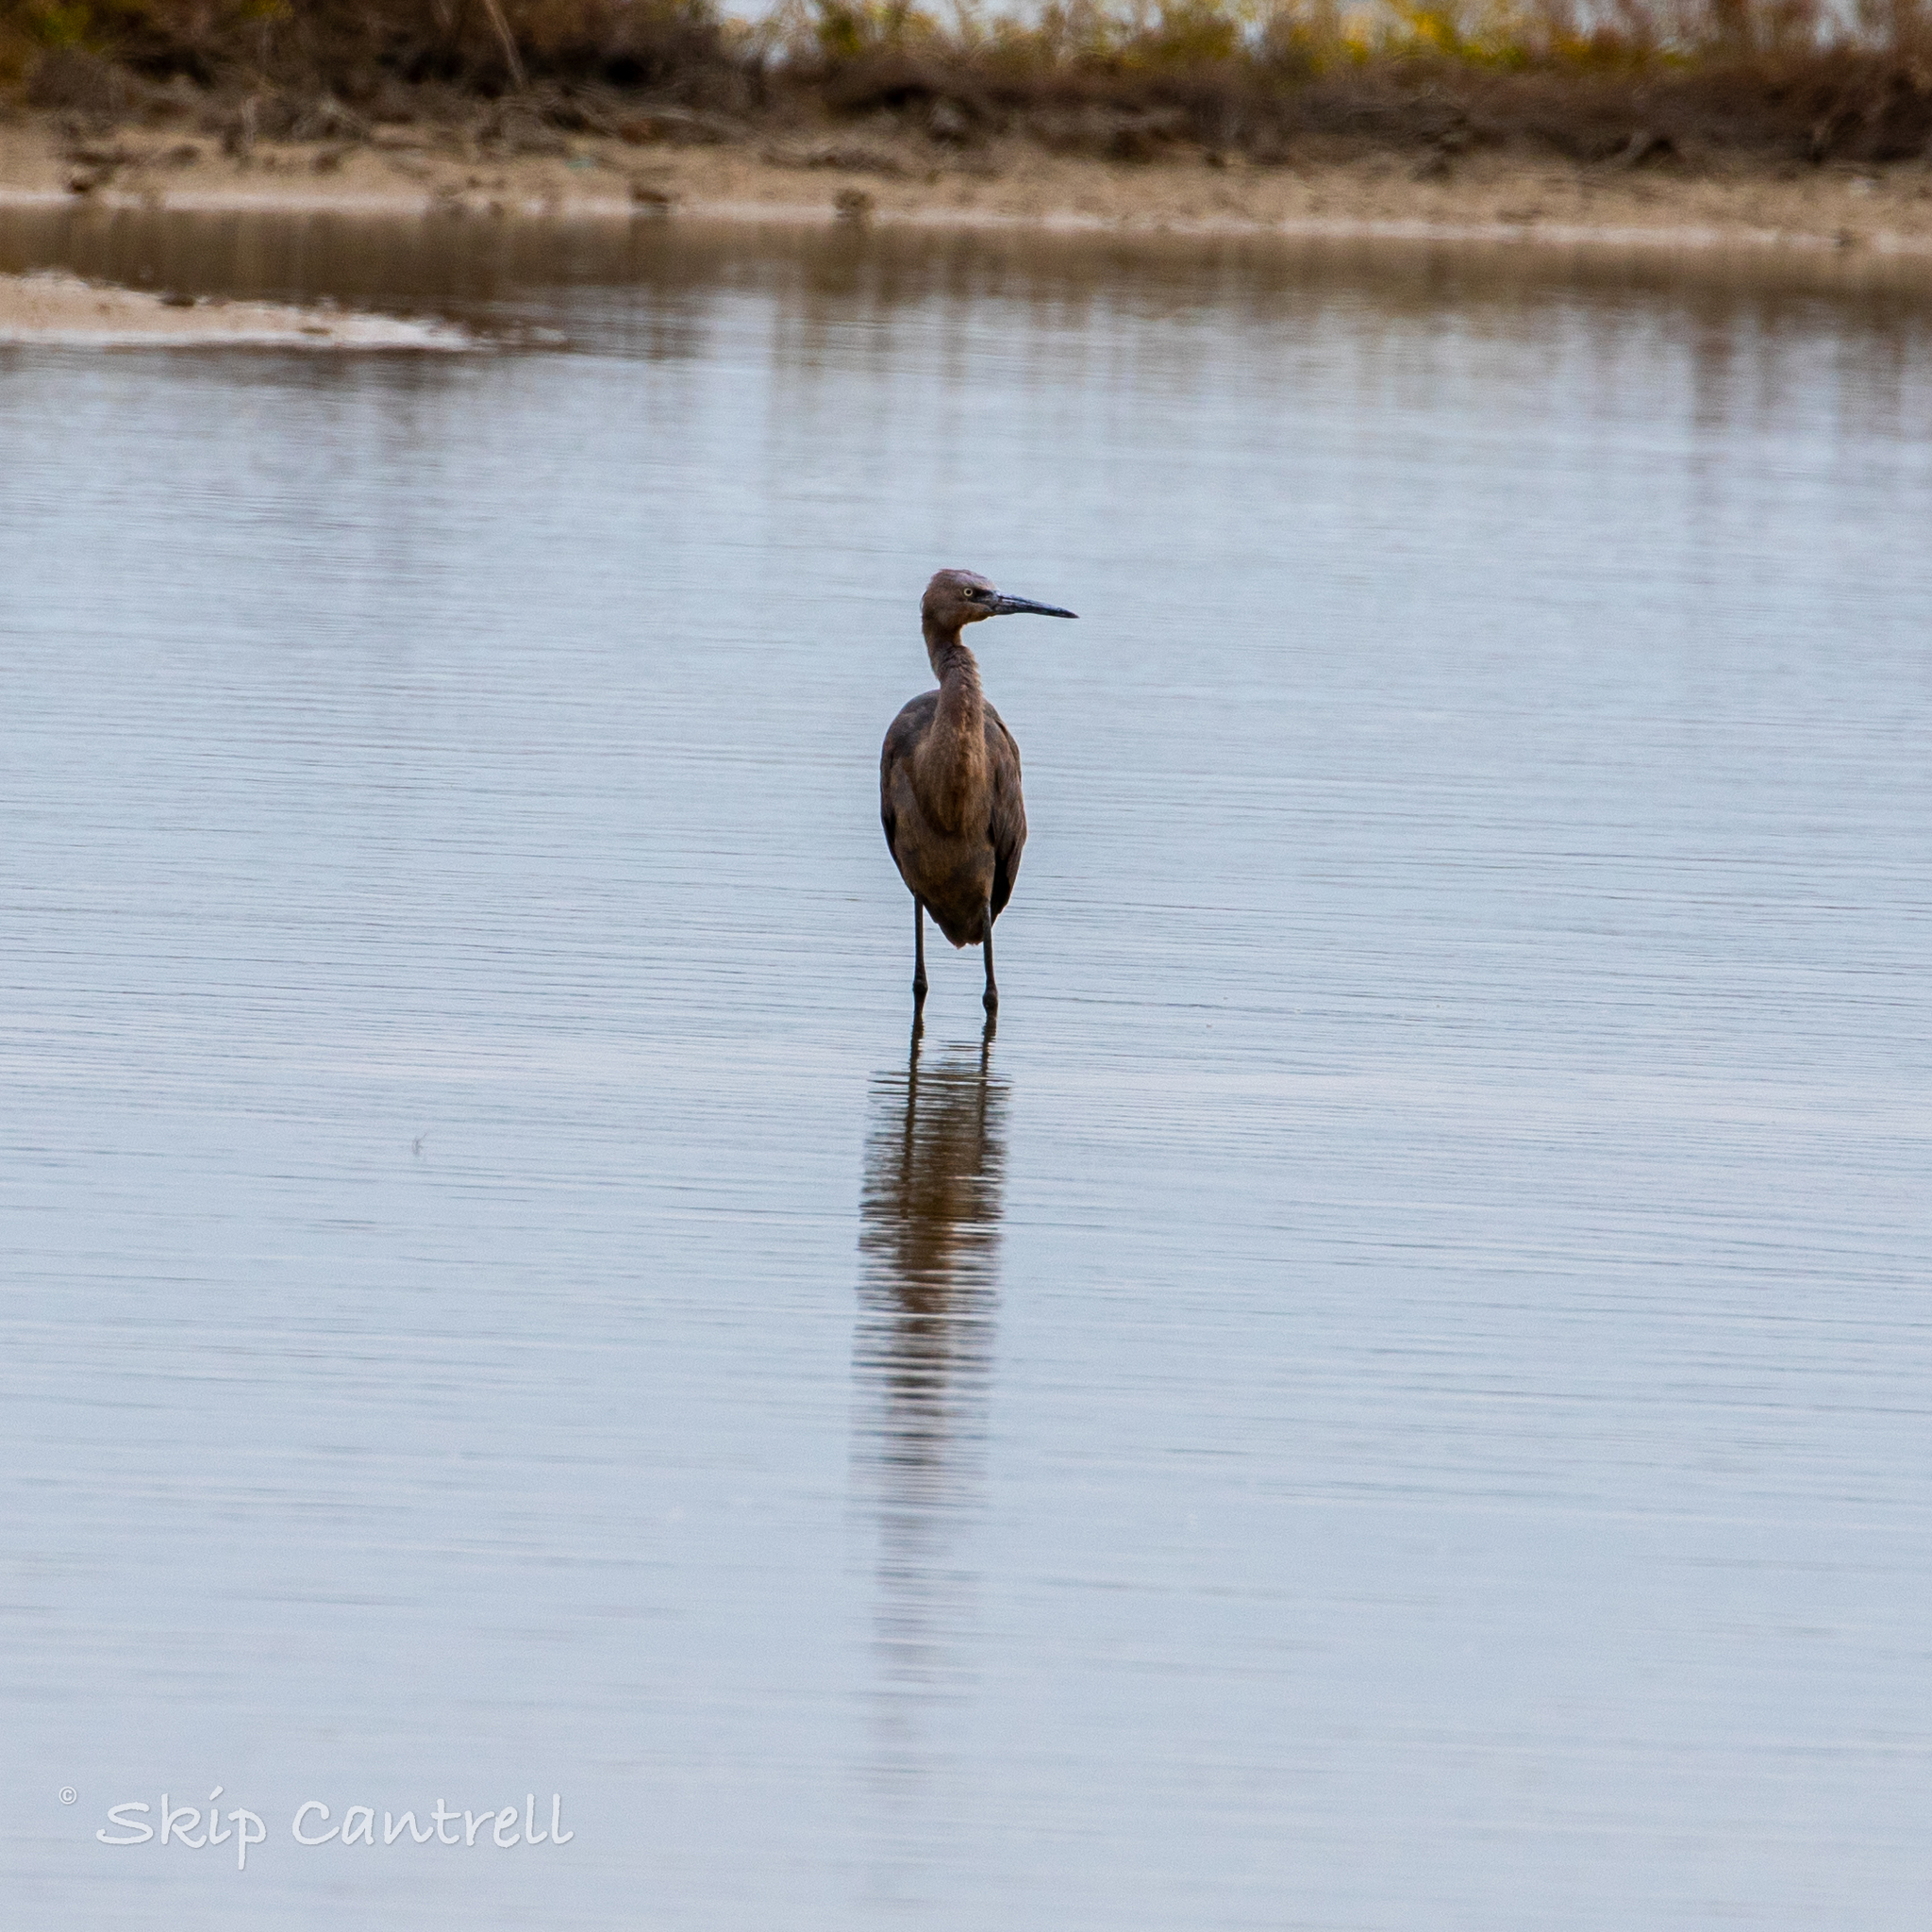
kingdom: Animalia
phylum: Chordata
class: Aves
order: Pelecaniformes
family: Ardeidae
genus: Egretta
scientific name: Egretta rufescens
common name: Reddish egret
